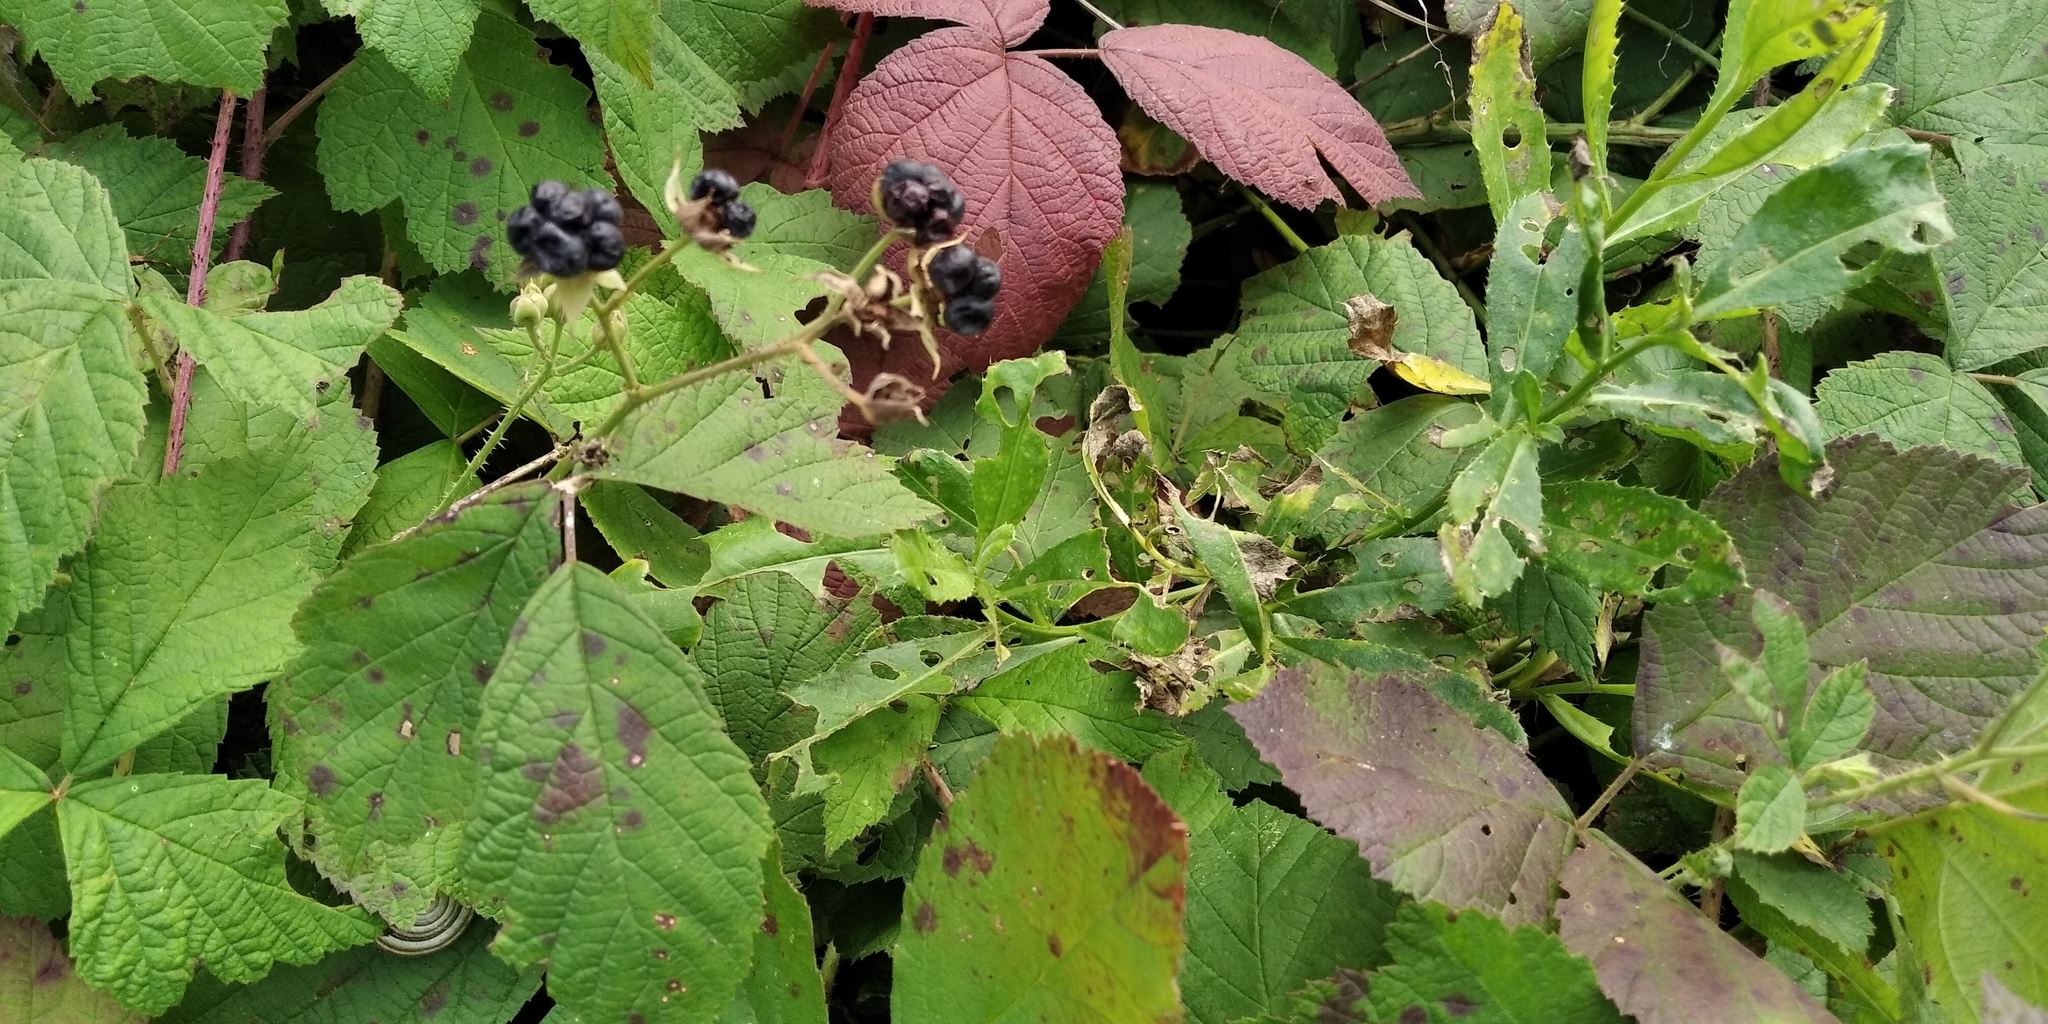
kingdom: Plantae
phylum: Tracheophyta
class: Magnoliopsida
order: Rosales
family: Rosaceae
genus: Rubus
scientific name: Rubus caesius
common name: Dewberry
